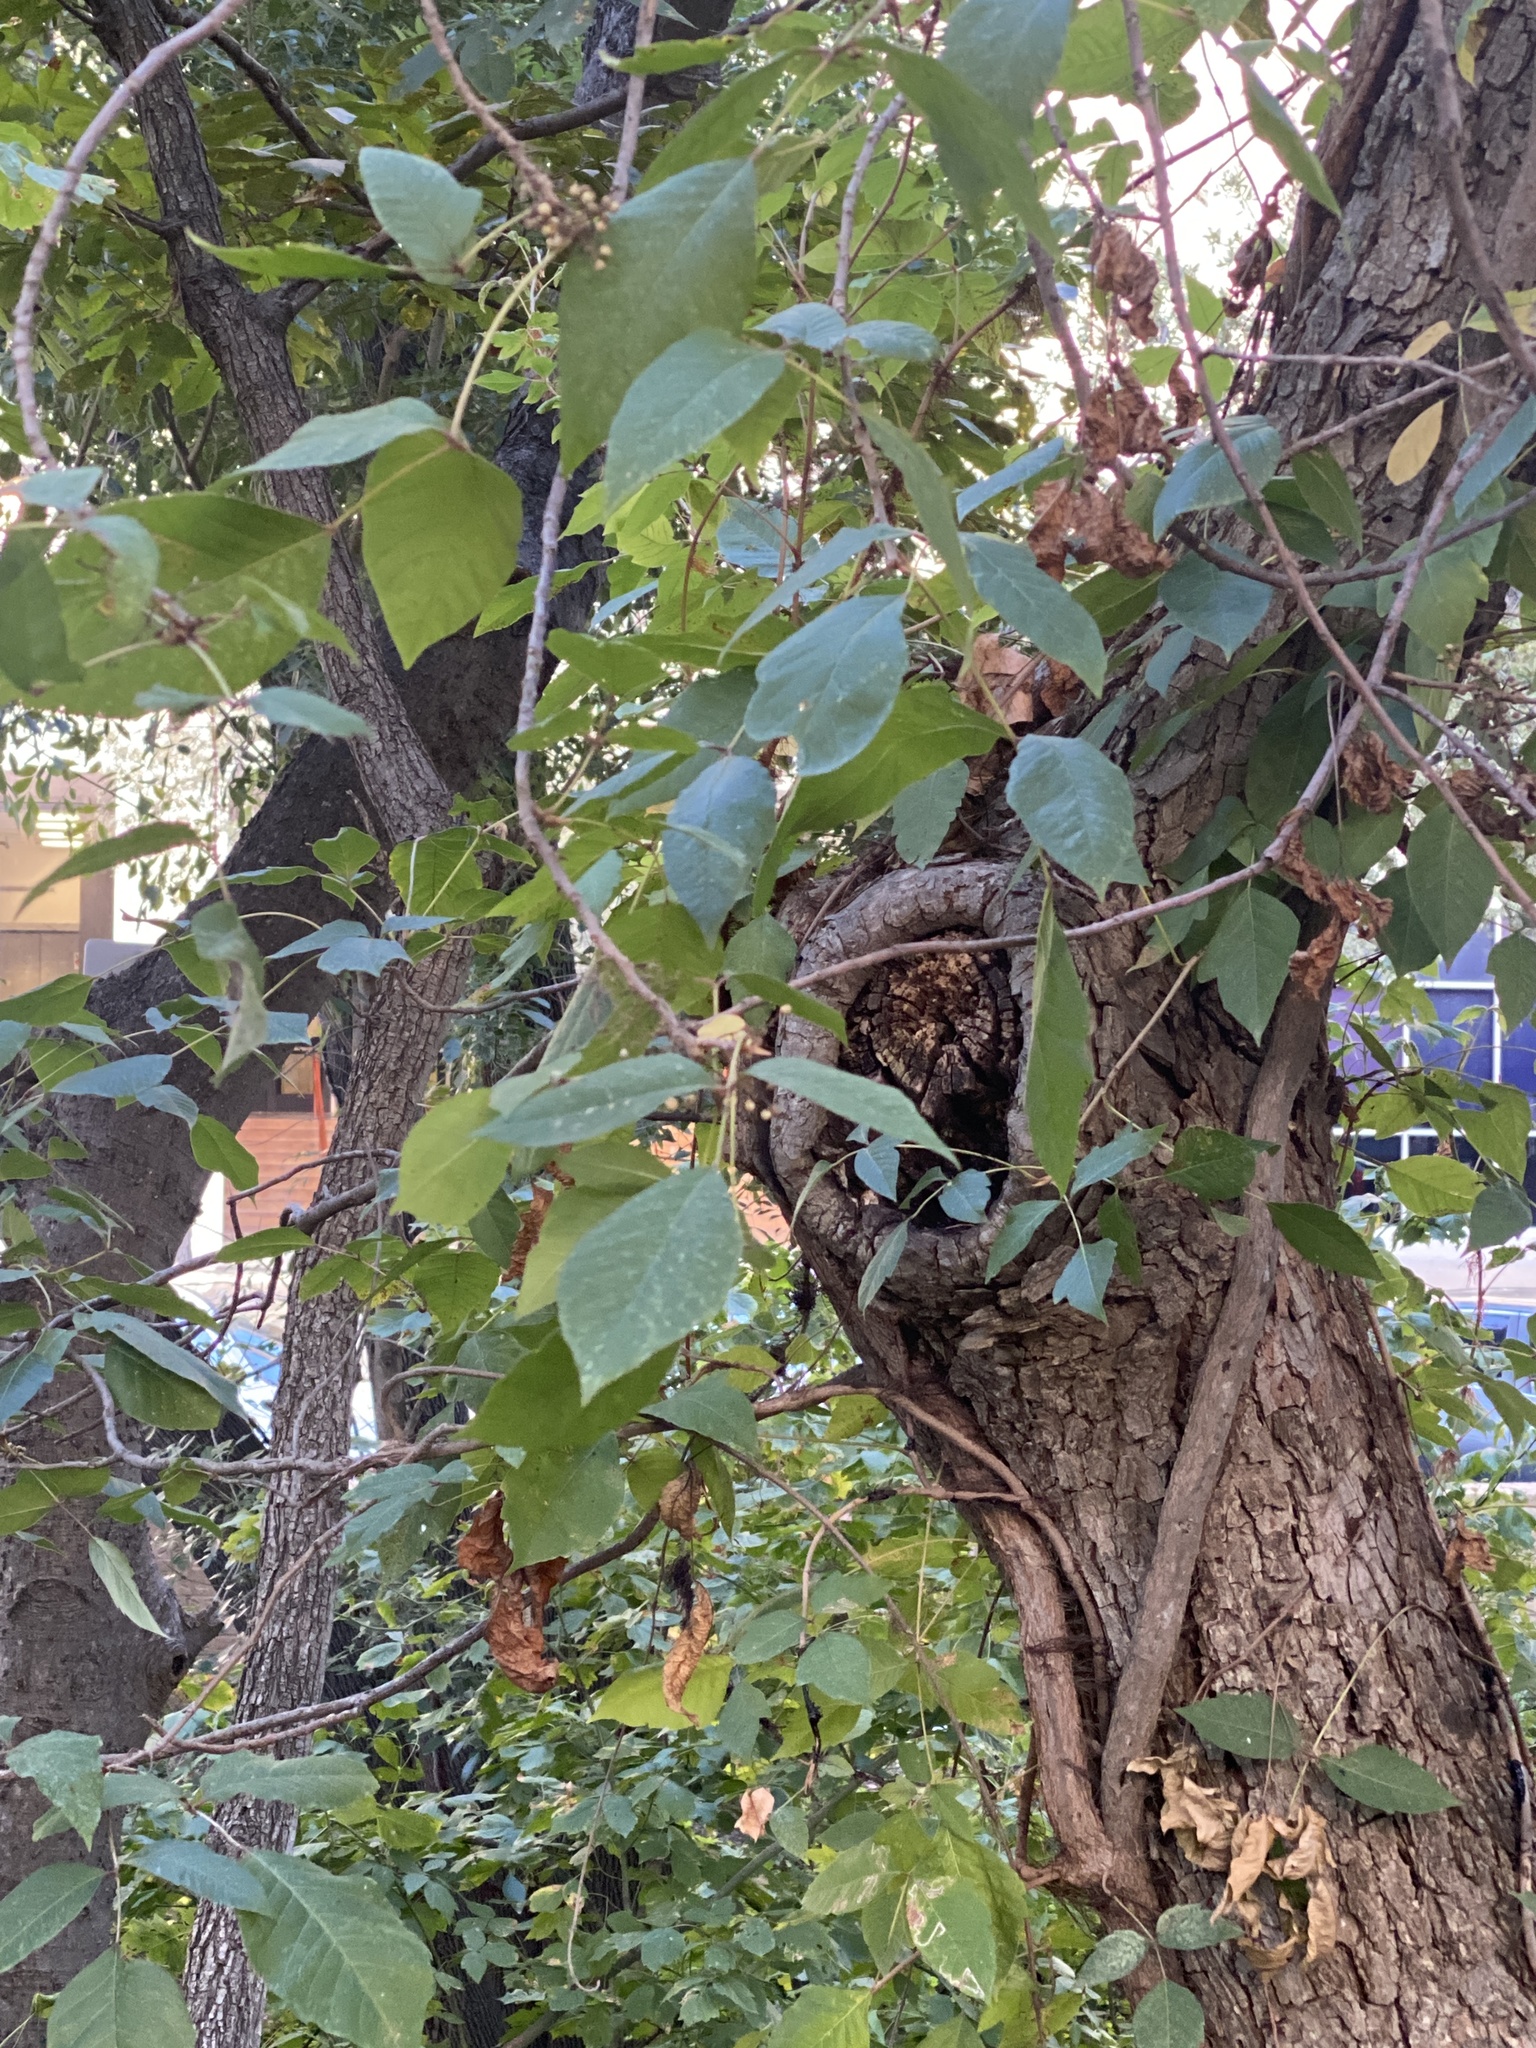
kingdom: Plantae
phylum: Tracheophyta
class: Magnoliopsida
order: Sapindales
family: Anacardiaceae
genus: Toxicodendron
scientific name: Toxicodendron radicans
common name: Poison ivy
